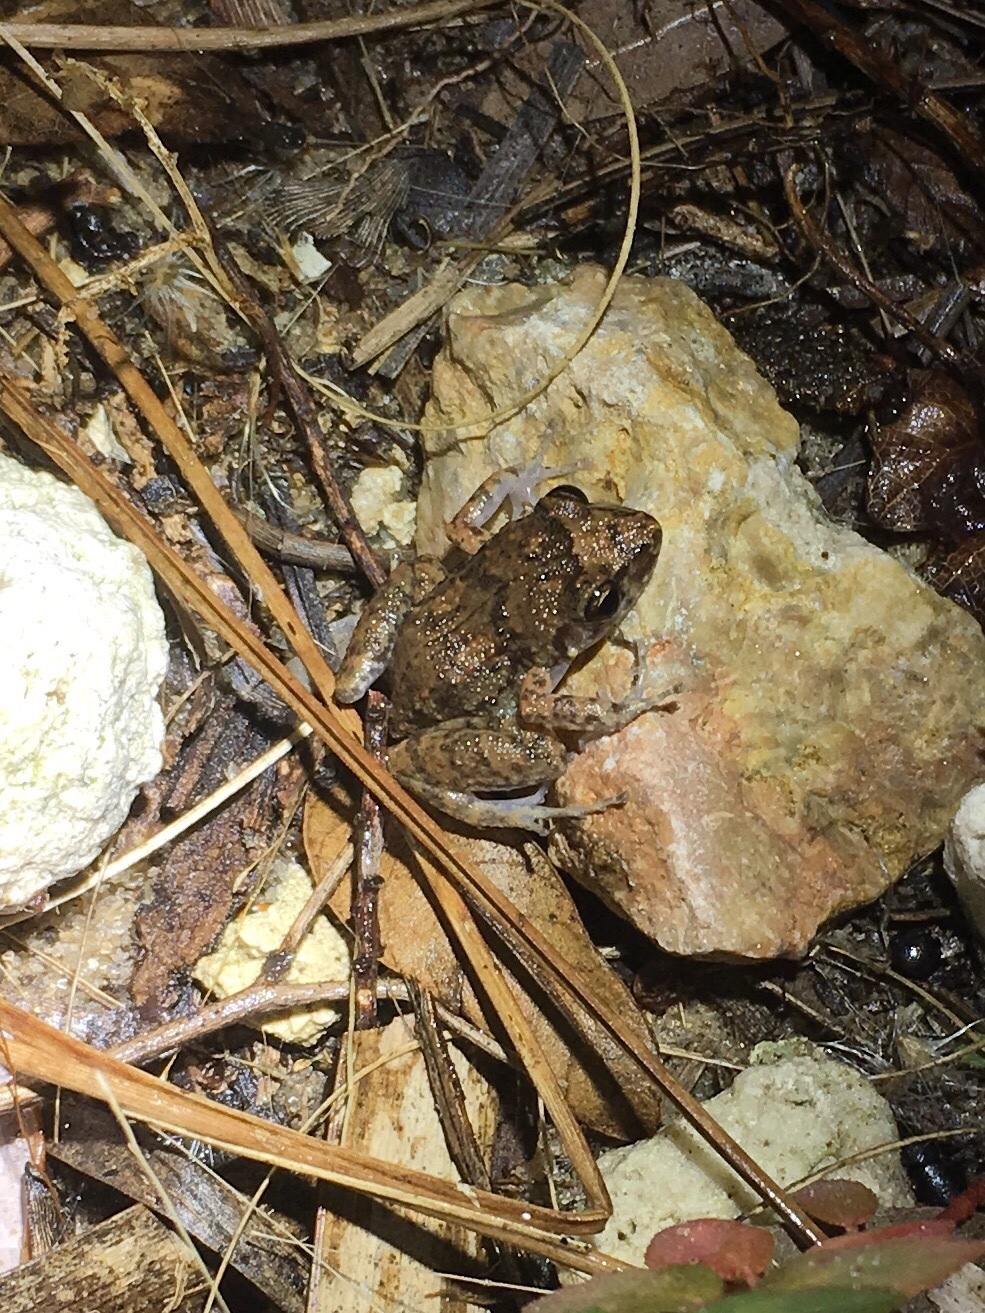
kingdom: Animalia
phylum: Chordata
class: Amphibia
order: Anura
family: Eleutherodactylidae
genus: Eleutherodactylus
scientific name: Eleutherodactylus planirostris
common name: Greenhouse frog
